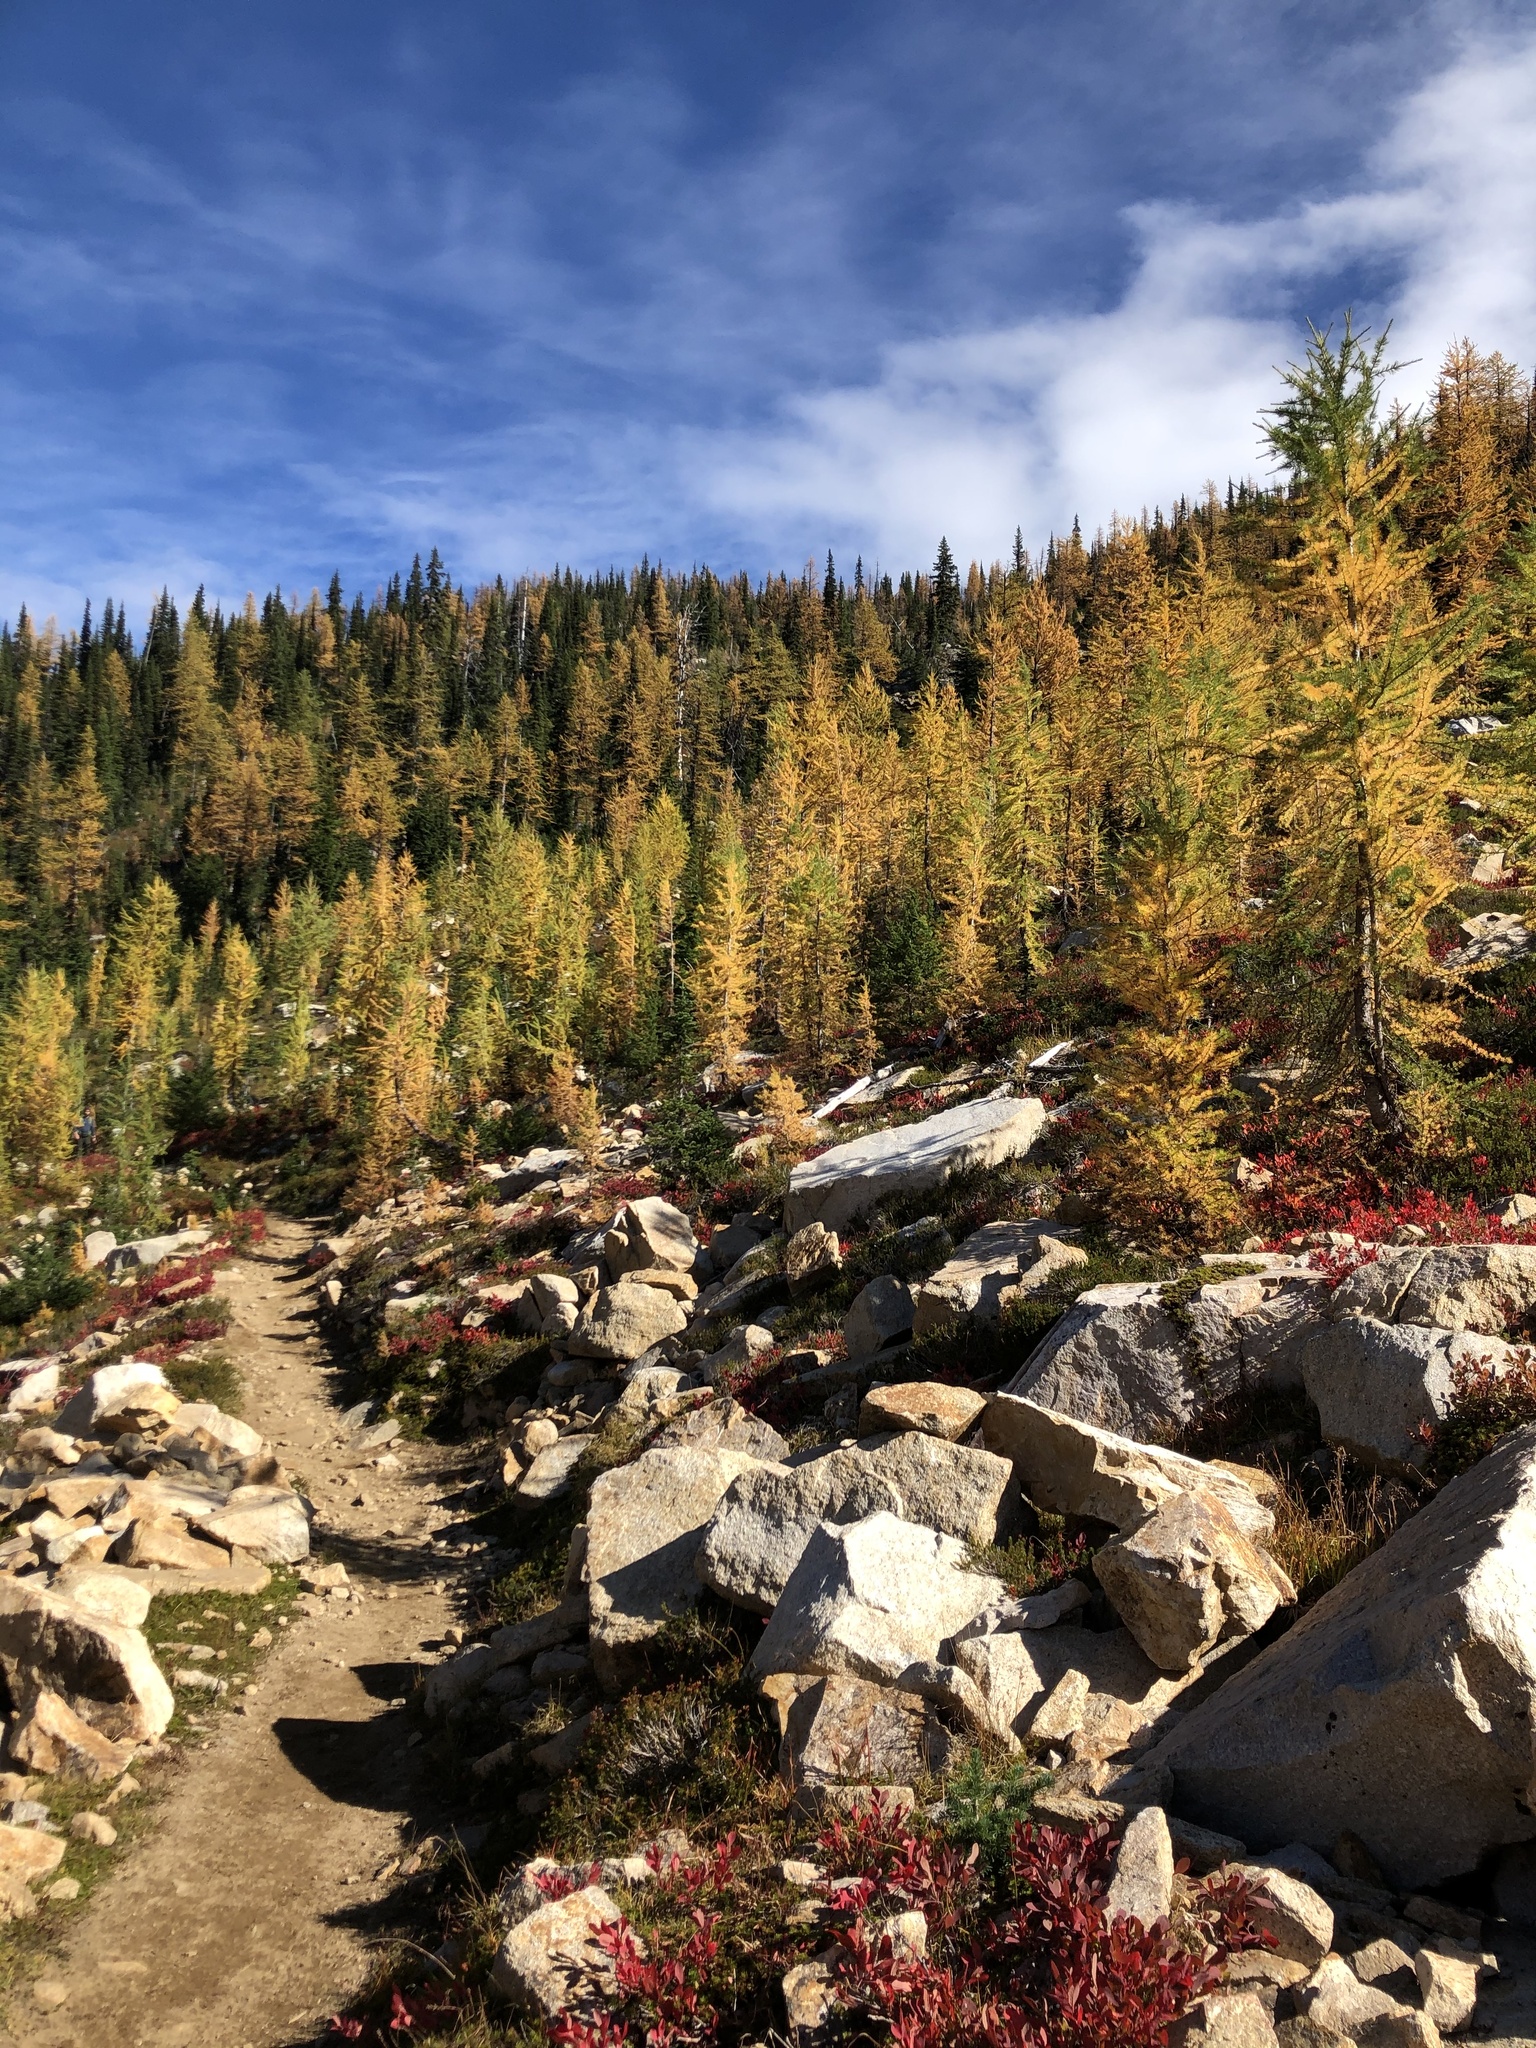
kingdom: Plantae
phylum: Tracheophyta
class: Pinopsida
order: Pinales
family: Pinaceae
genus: Larix
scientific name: Larix lyallii
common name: Alpine larch
